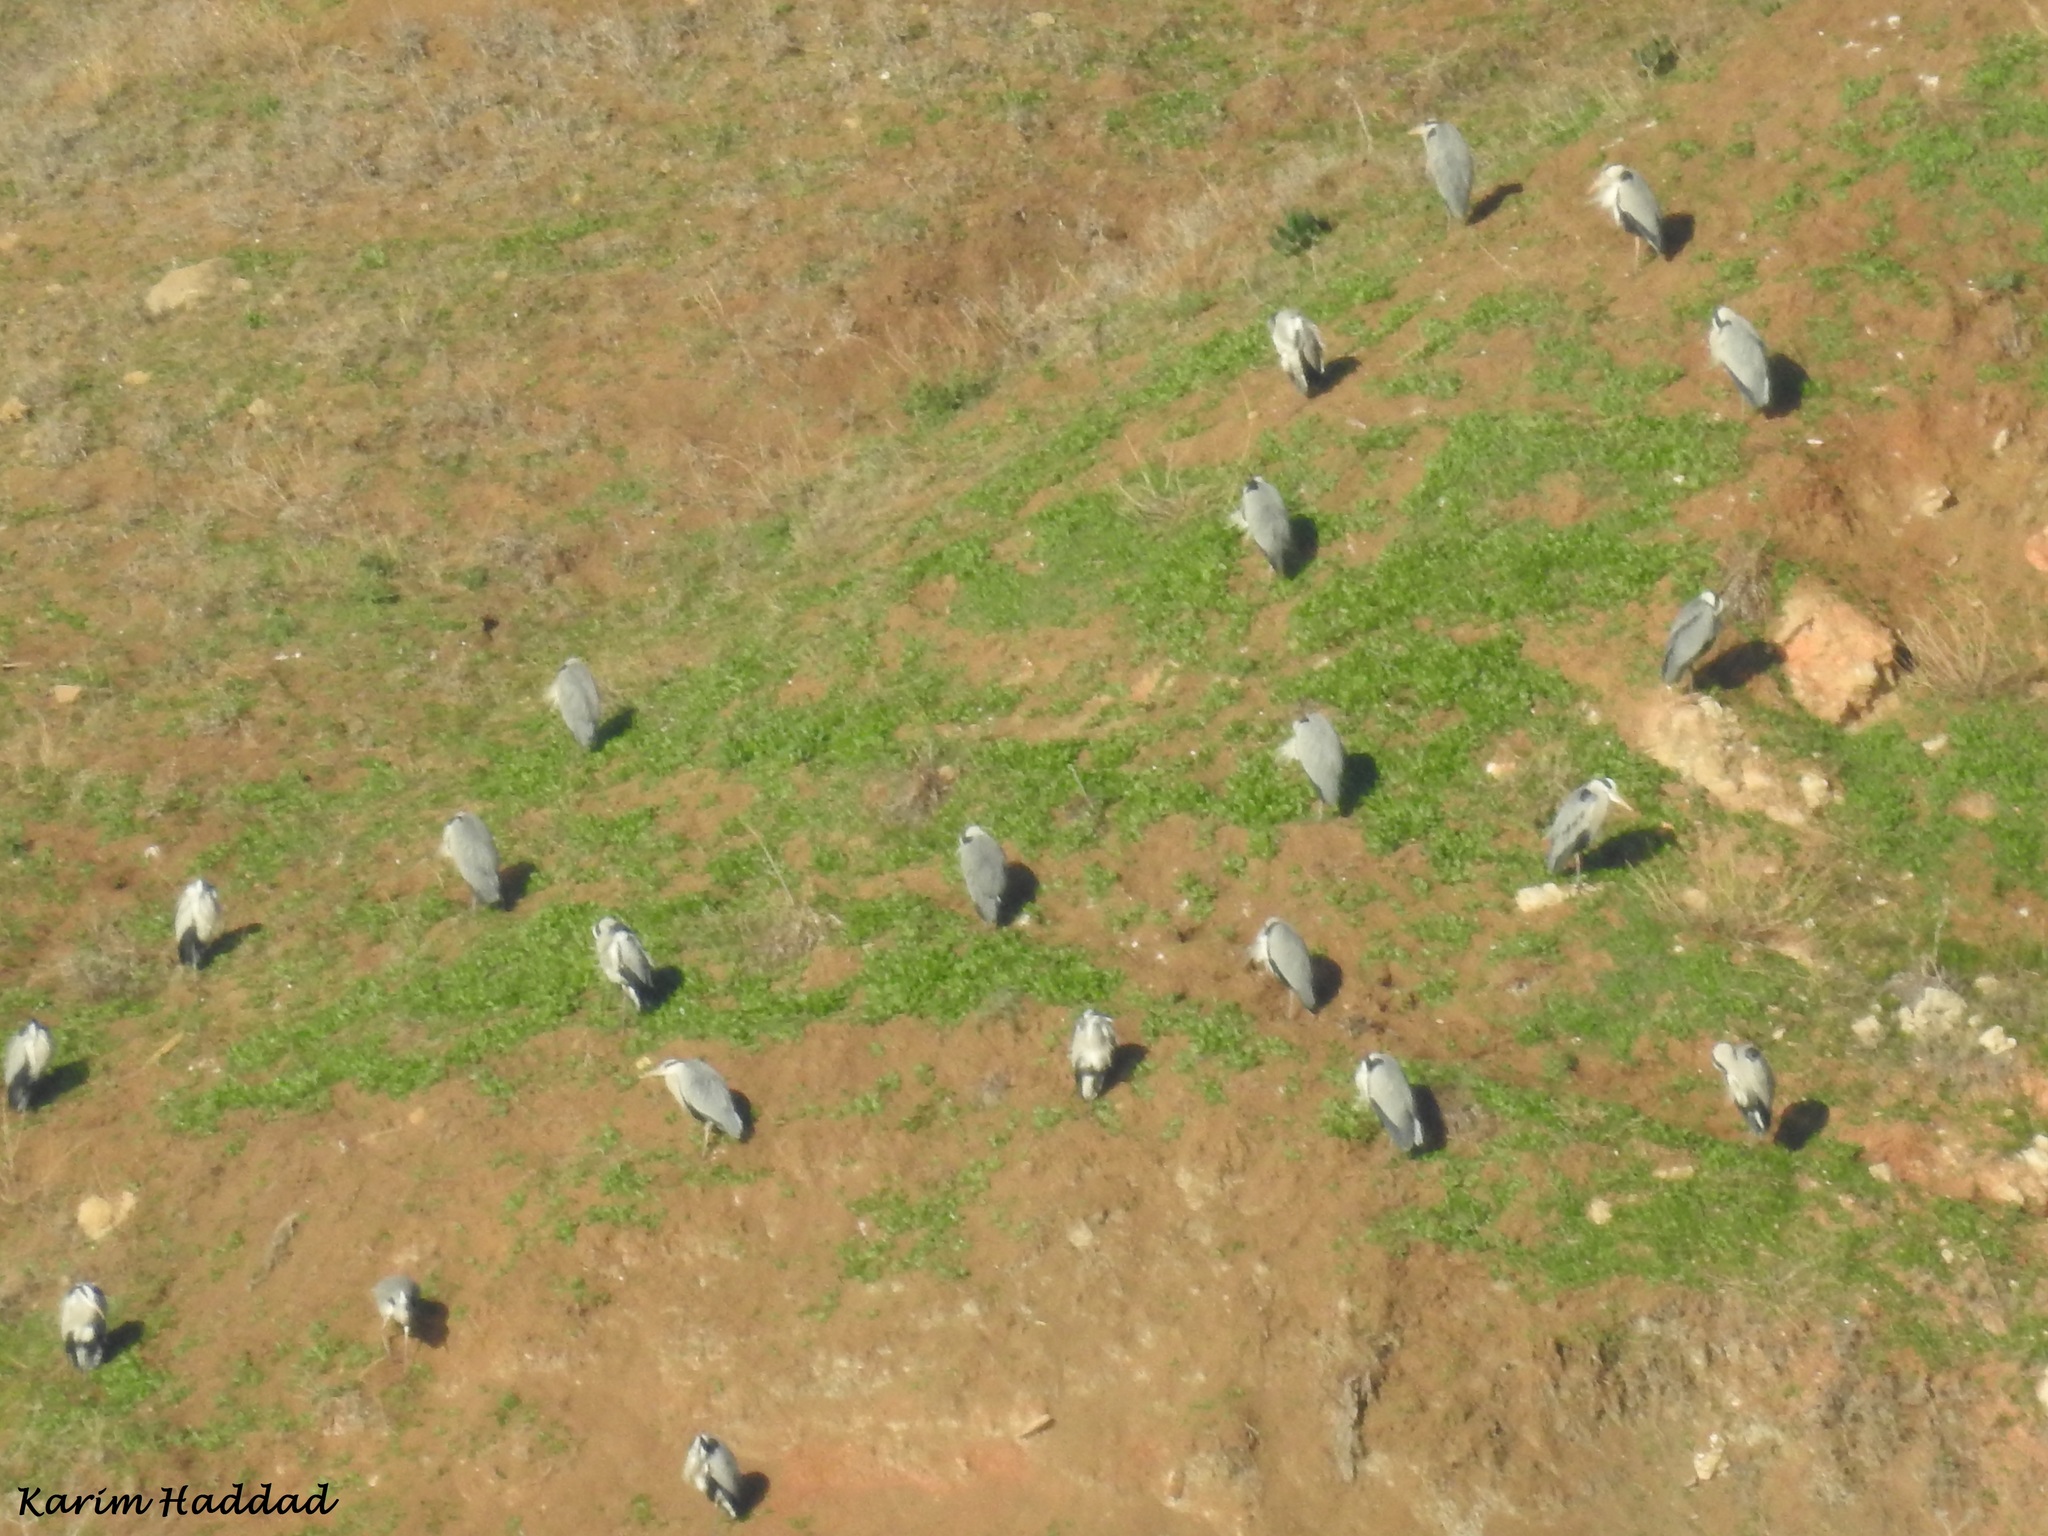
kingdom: Animalia
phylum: Chordata
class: Aves
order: Pelecaniformes
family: Ardeidae
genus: Ardea
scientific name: Ardea cinerea
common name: Grey heron
